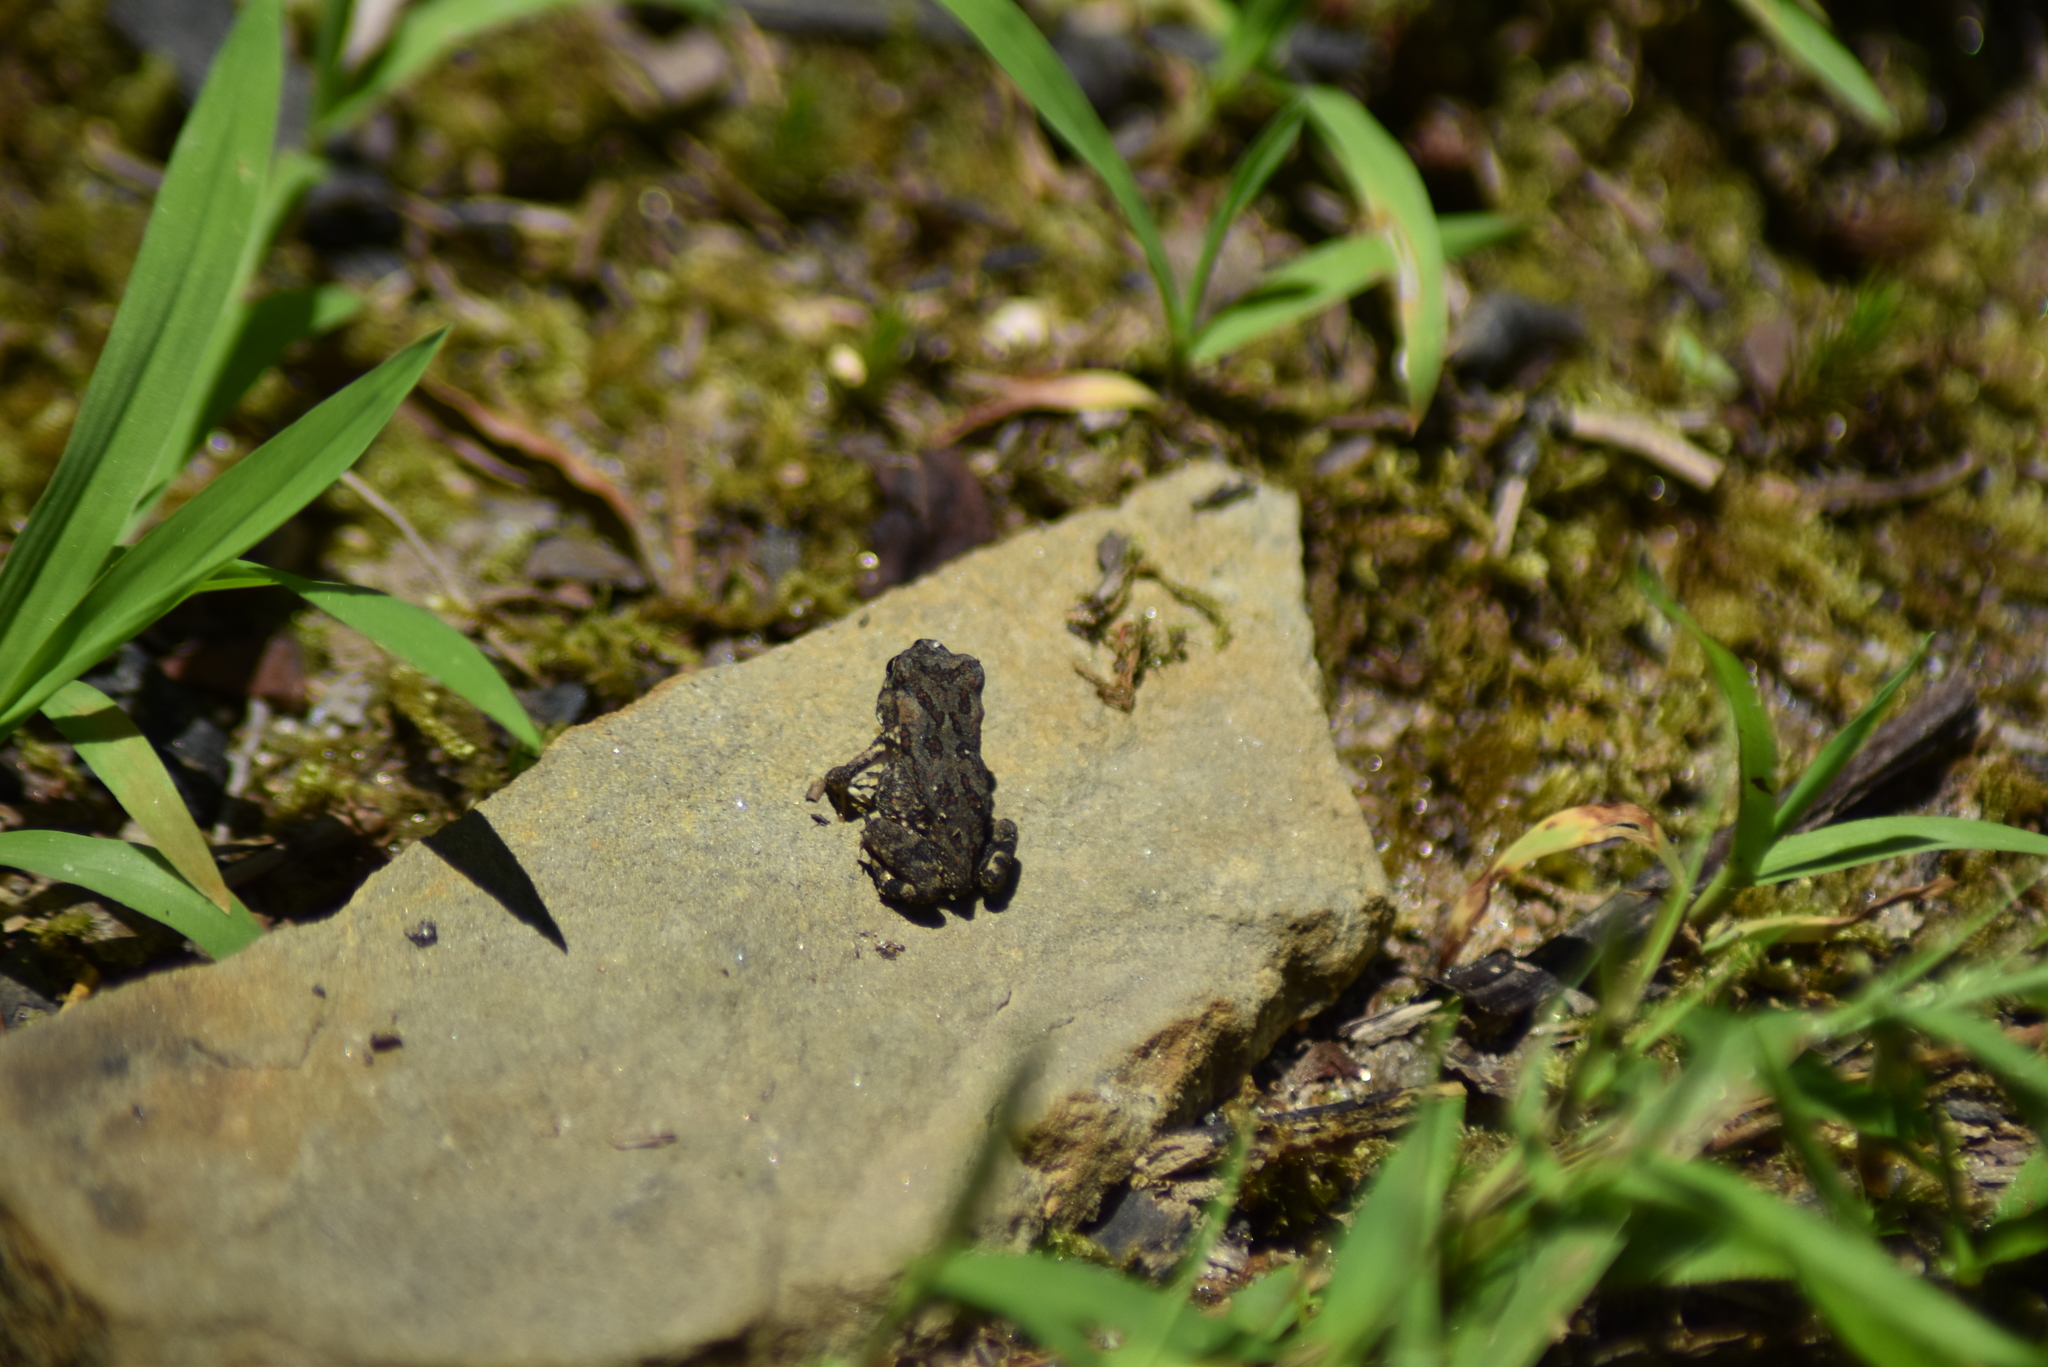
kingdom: Animalia
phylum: Chordata
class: Amphibia
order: Anura
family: Bufonidae
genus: Anaxyrus
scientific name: Anaxyrus americanus
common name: American toad
